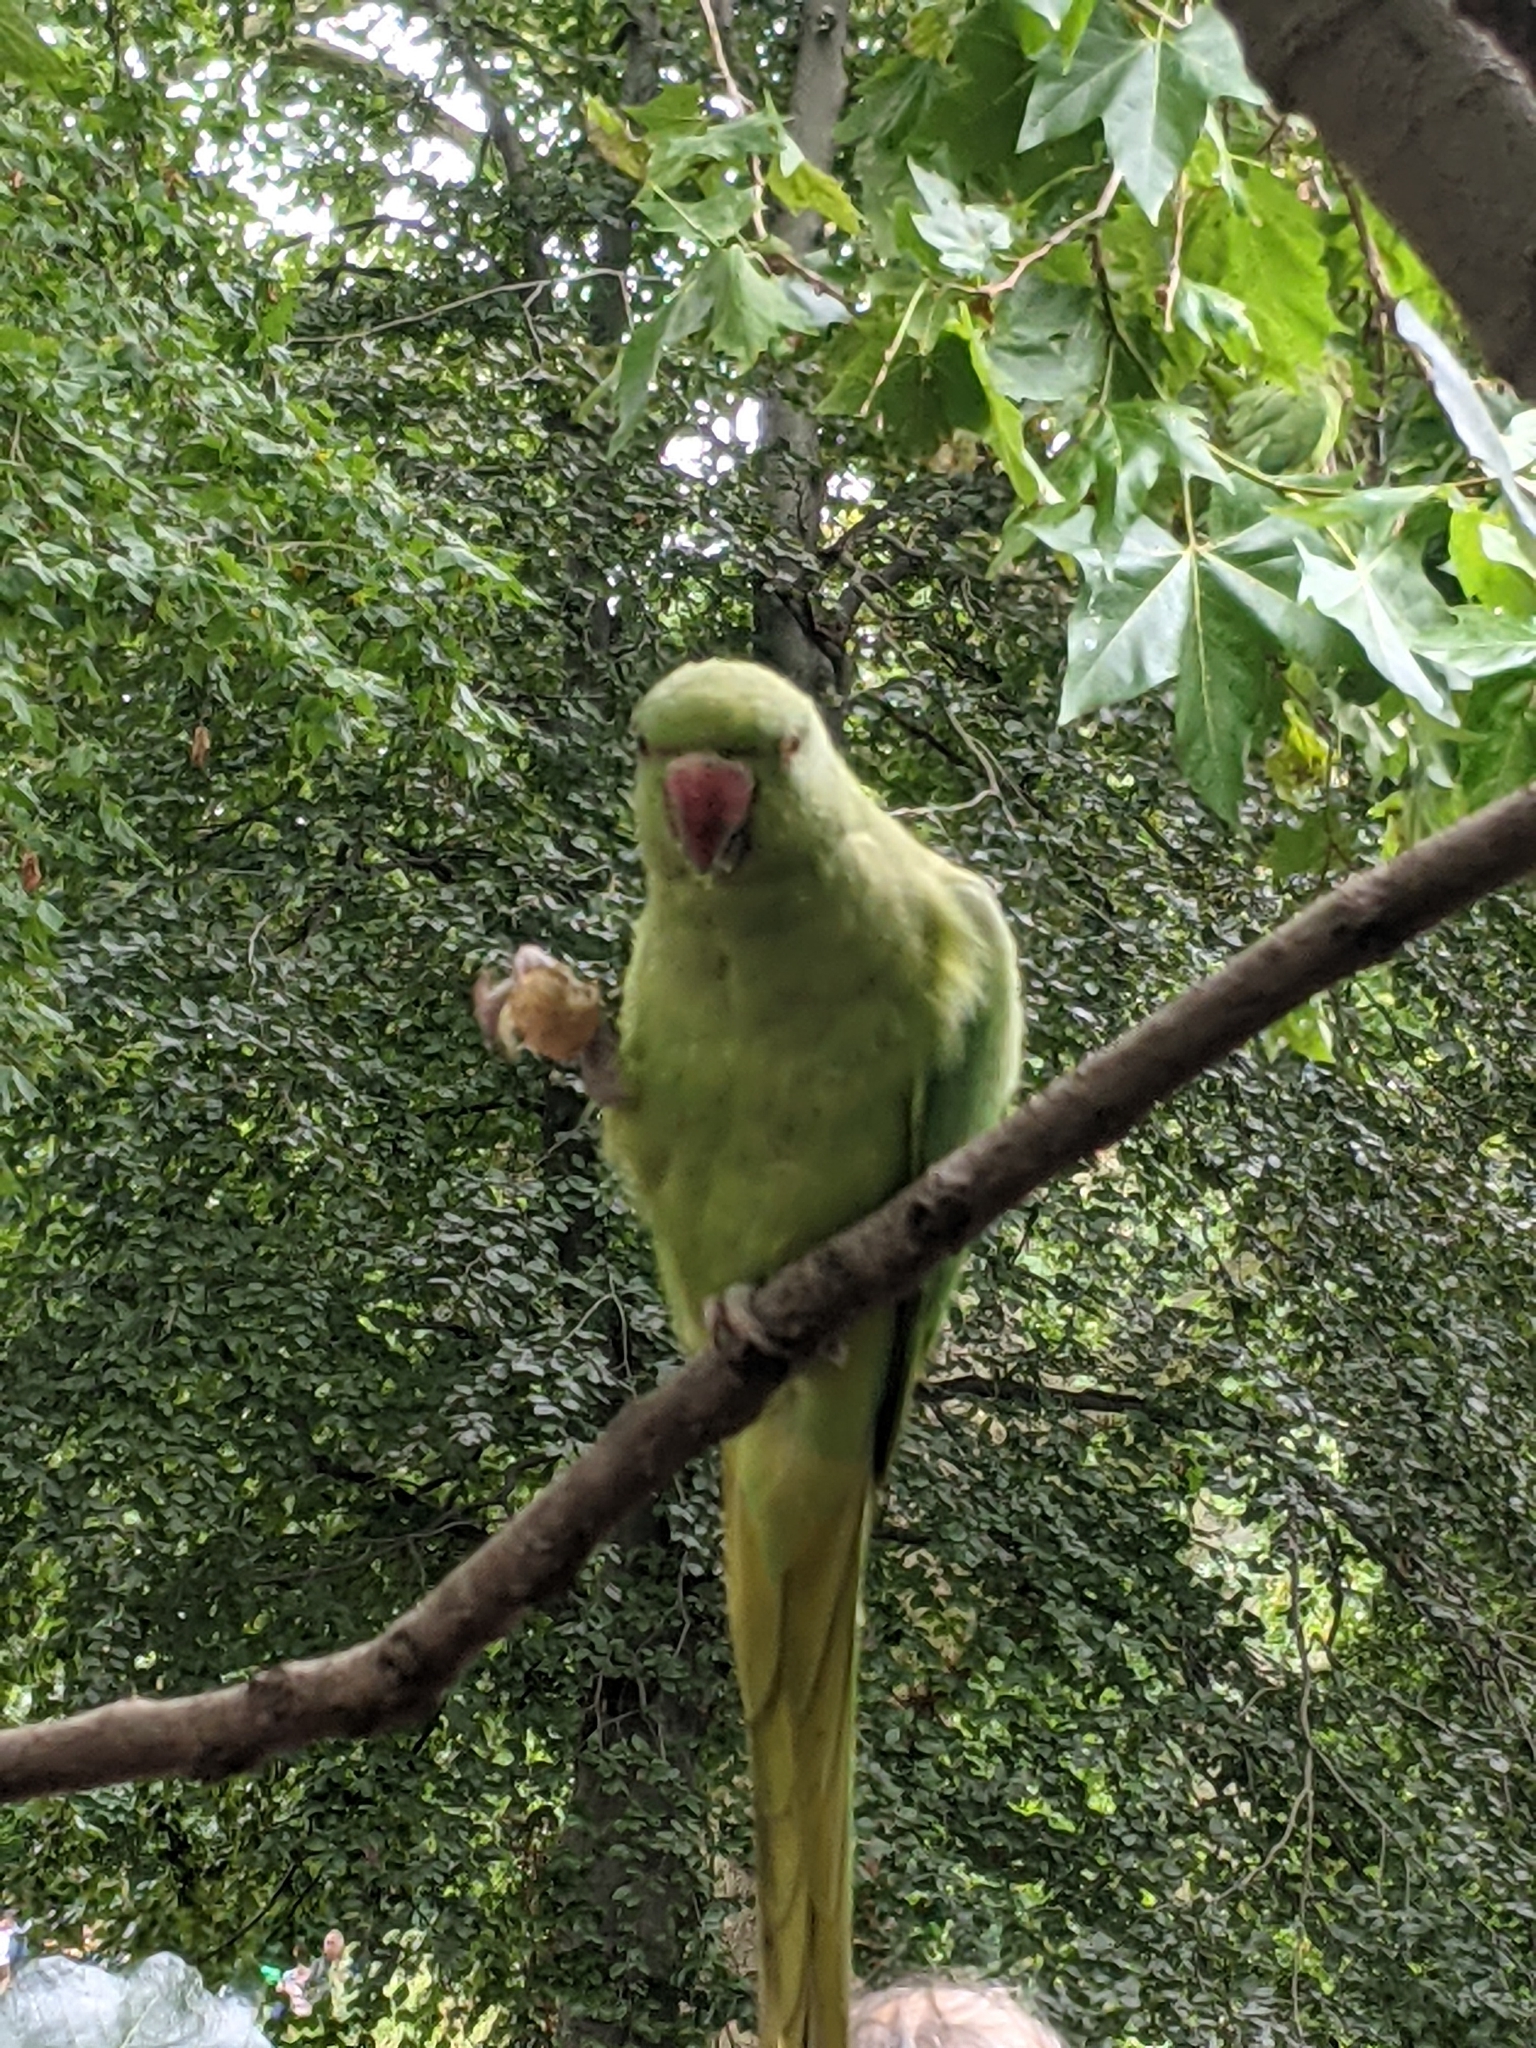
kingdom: Animalia
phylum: Chordata
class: Aves
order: Psittaciformes
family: Psittacidae
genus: Psittacula
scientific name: Psittacula krameri
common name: Rose-ringed parakeet
